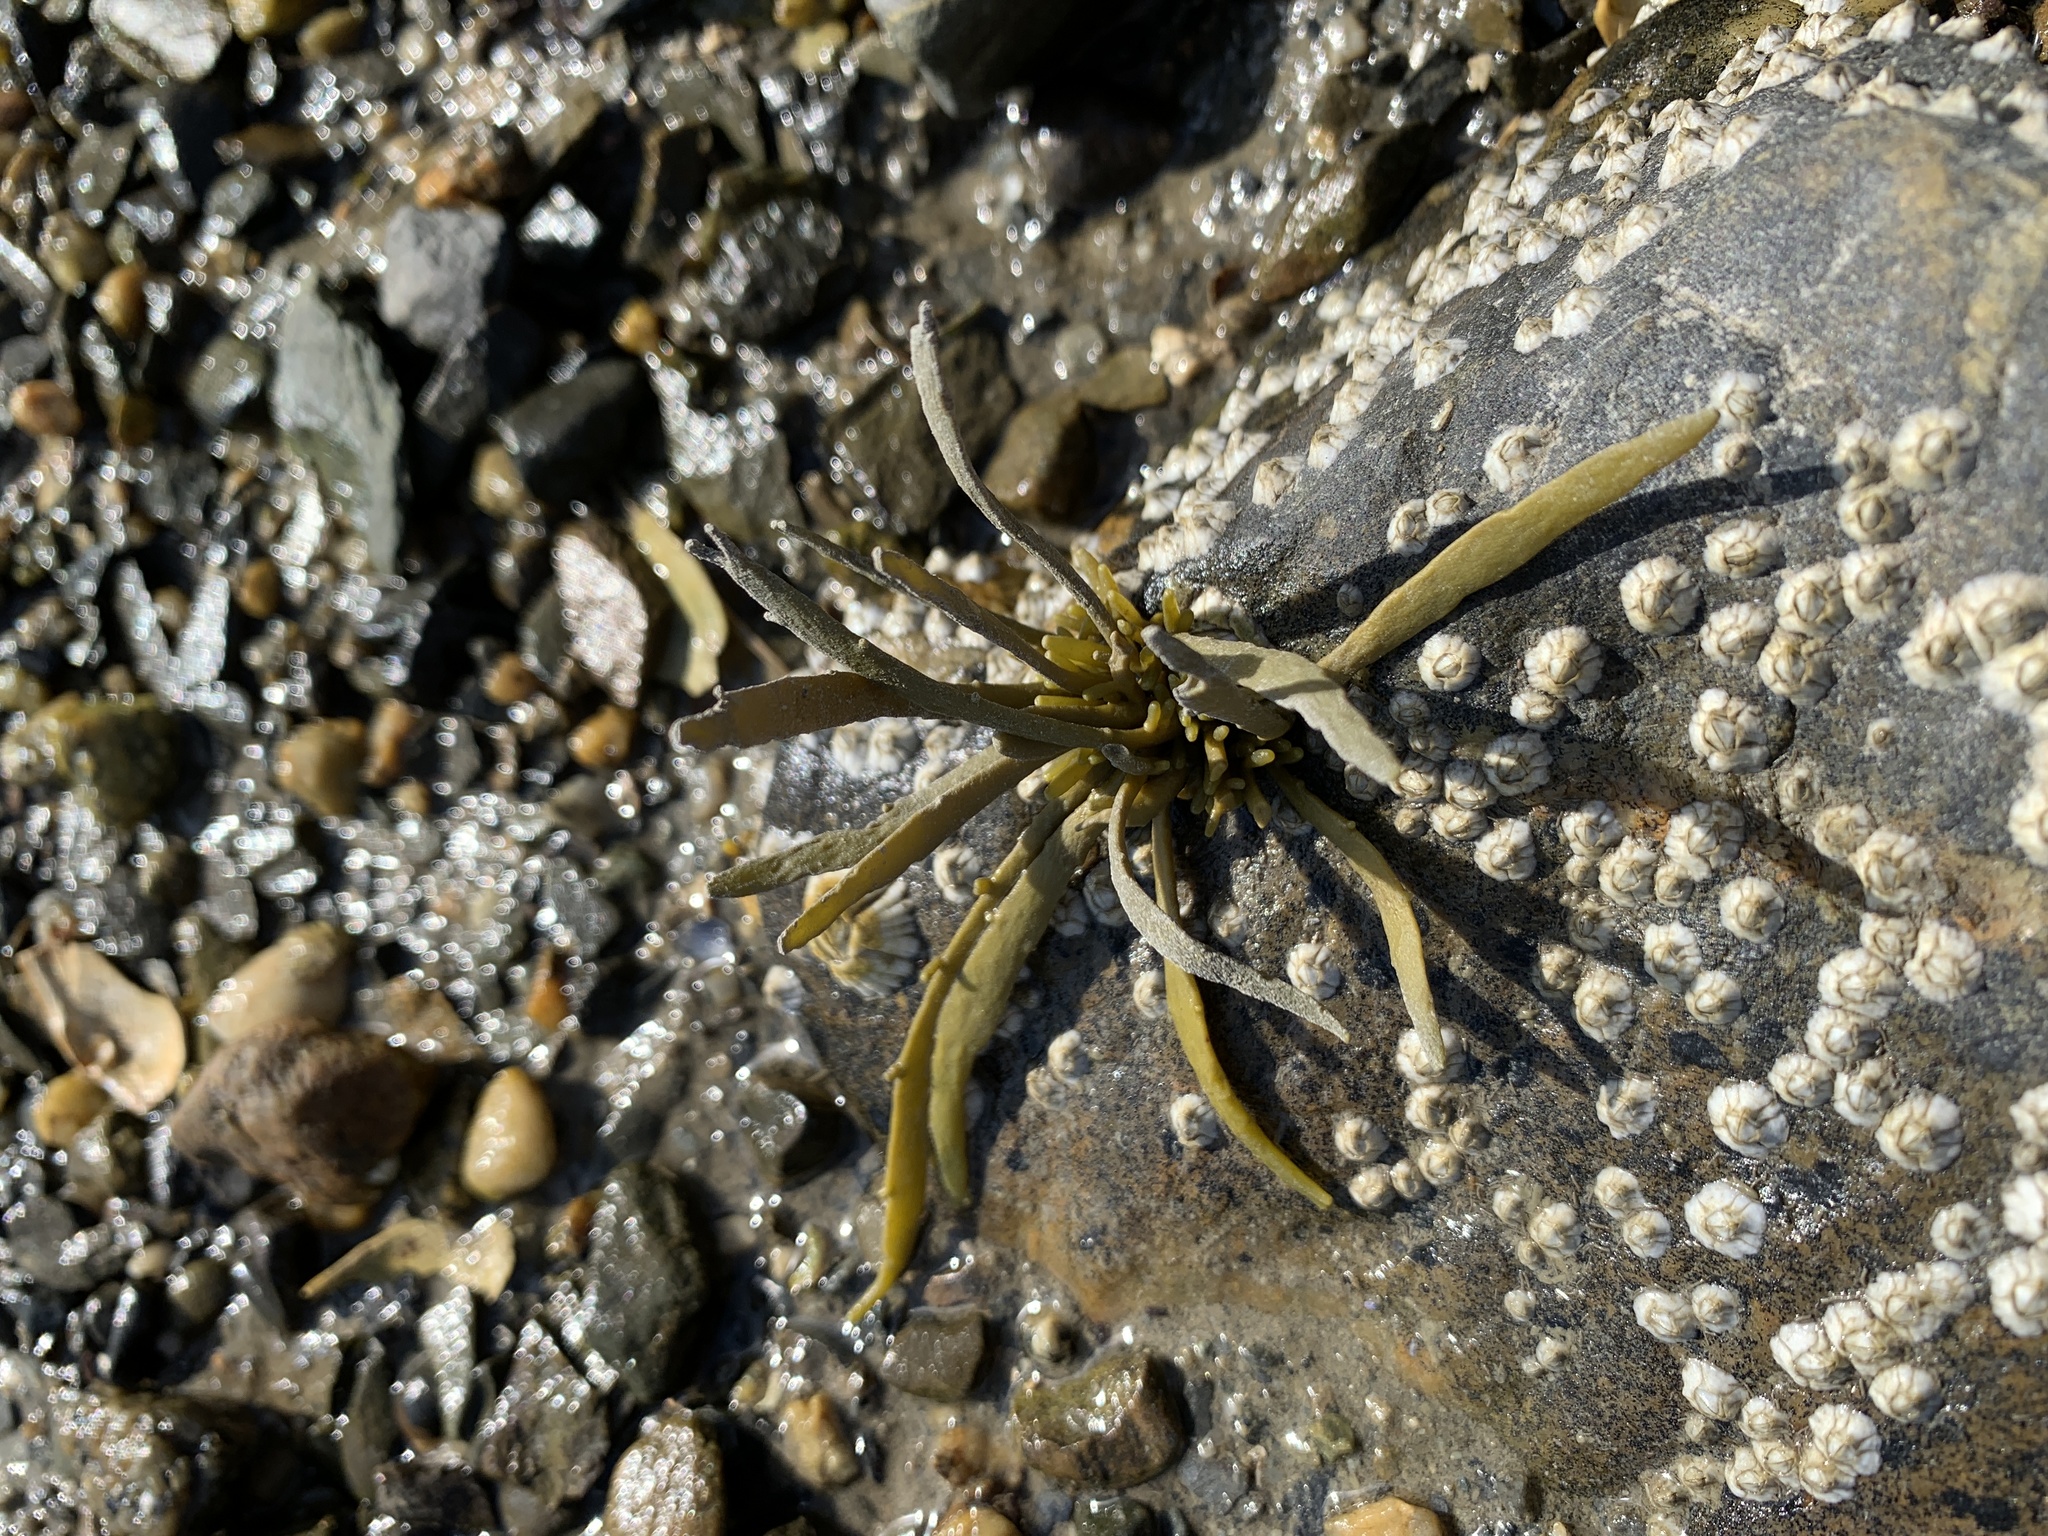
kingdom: Chromista
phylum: Ochrophyta
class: Phaeophyceae
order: Fucales
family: Fucaceae
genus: Ascophyllum
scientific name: Ascophyllum nodosum
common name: Knotted wrack
